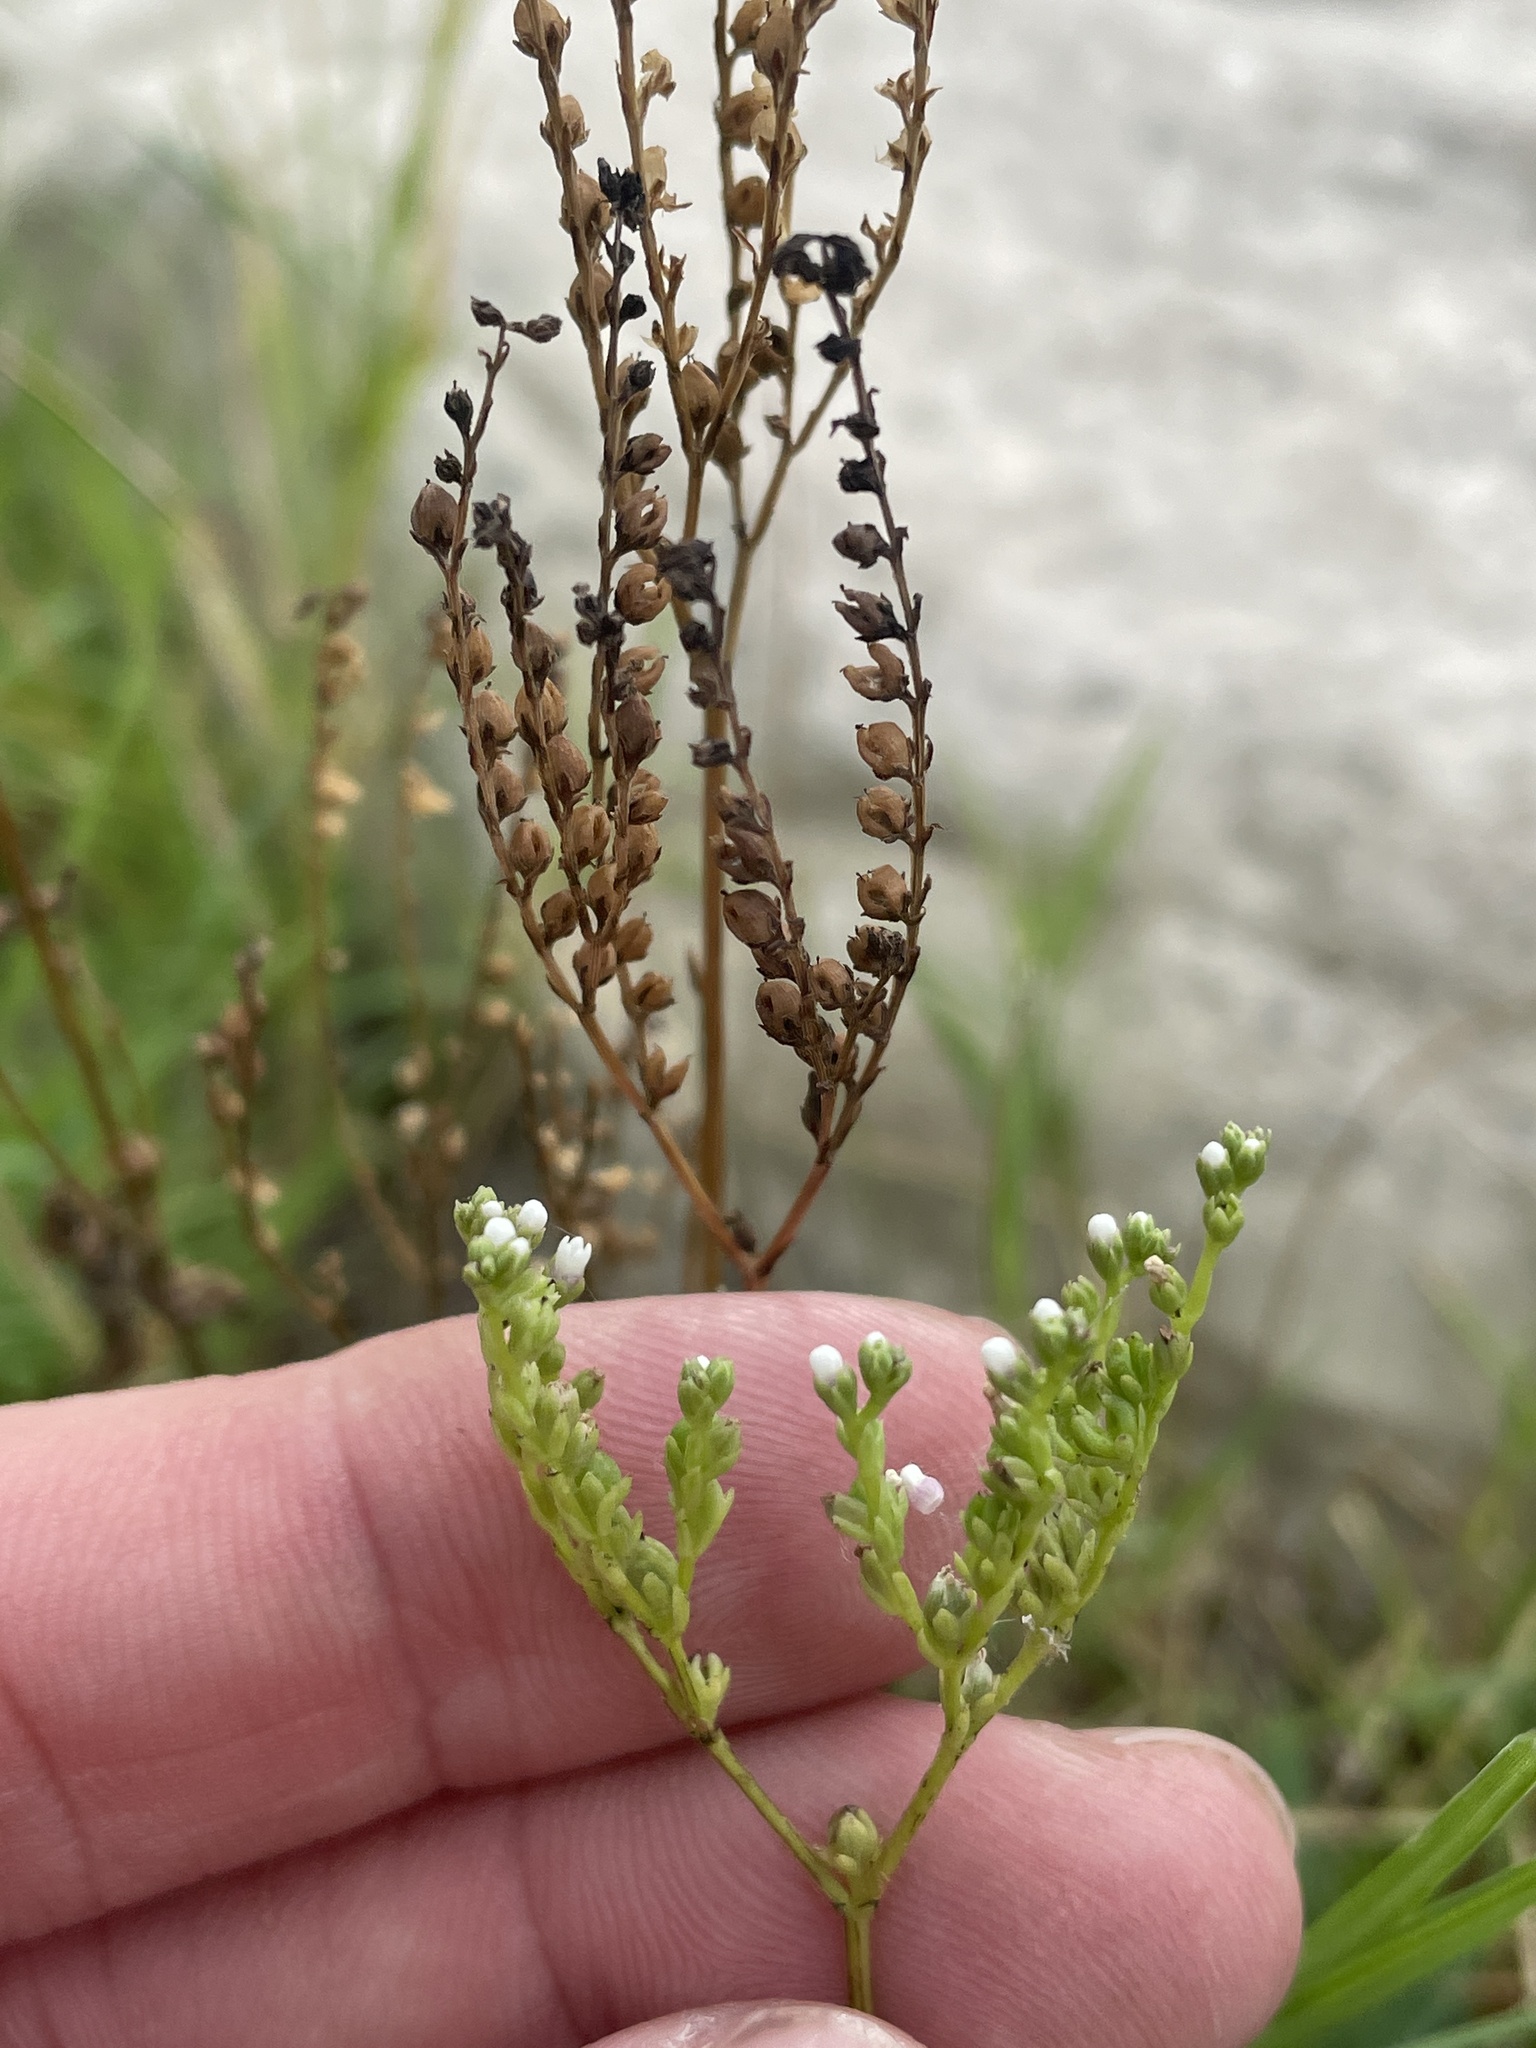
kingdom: Plantae
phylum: Tracheophyta
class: Magnoliopsida
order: Gentianales
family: Loganiaceae
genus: Mitreola
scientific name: Mitreola petiolata
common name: Lax hornpod
